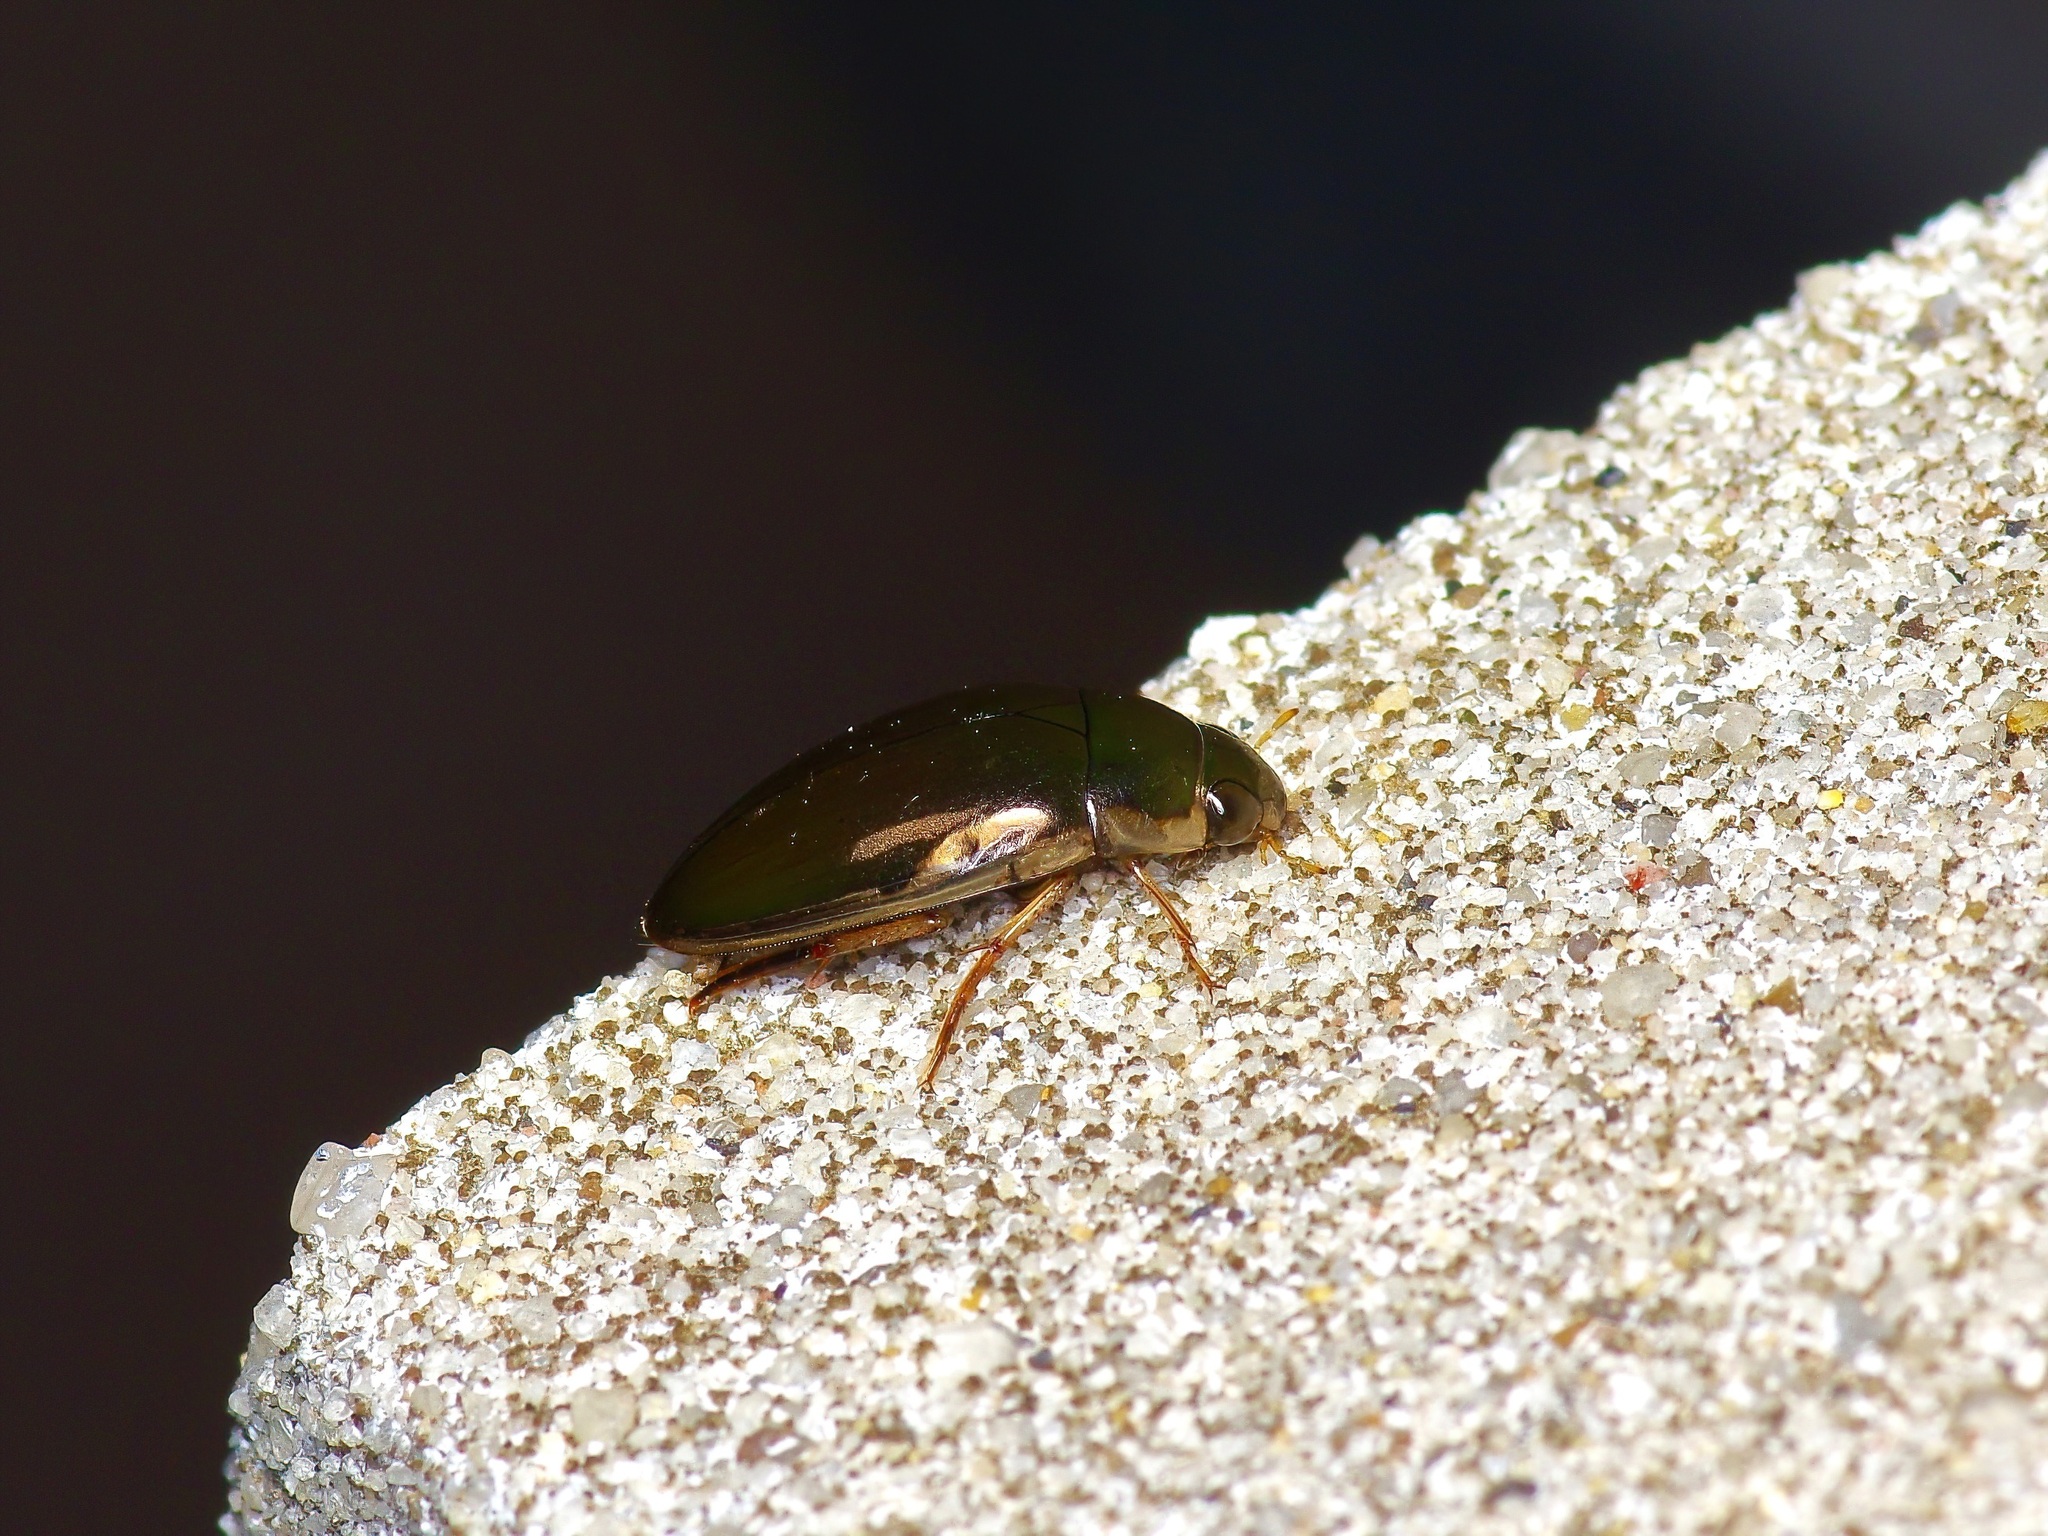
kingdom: Animalia
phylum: Arthropoda
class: Insecta
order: Coleoptera
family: Hydrophilidae
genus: Tropisternus
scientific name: Tropisternus lateralis
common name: Lateral-banded water scavenger beetle
